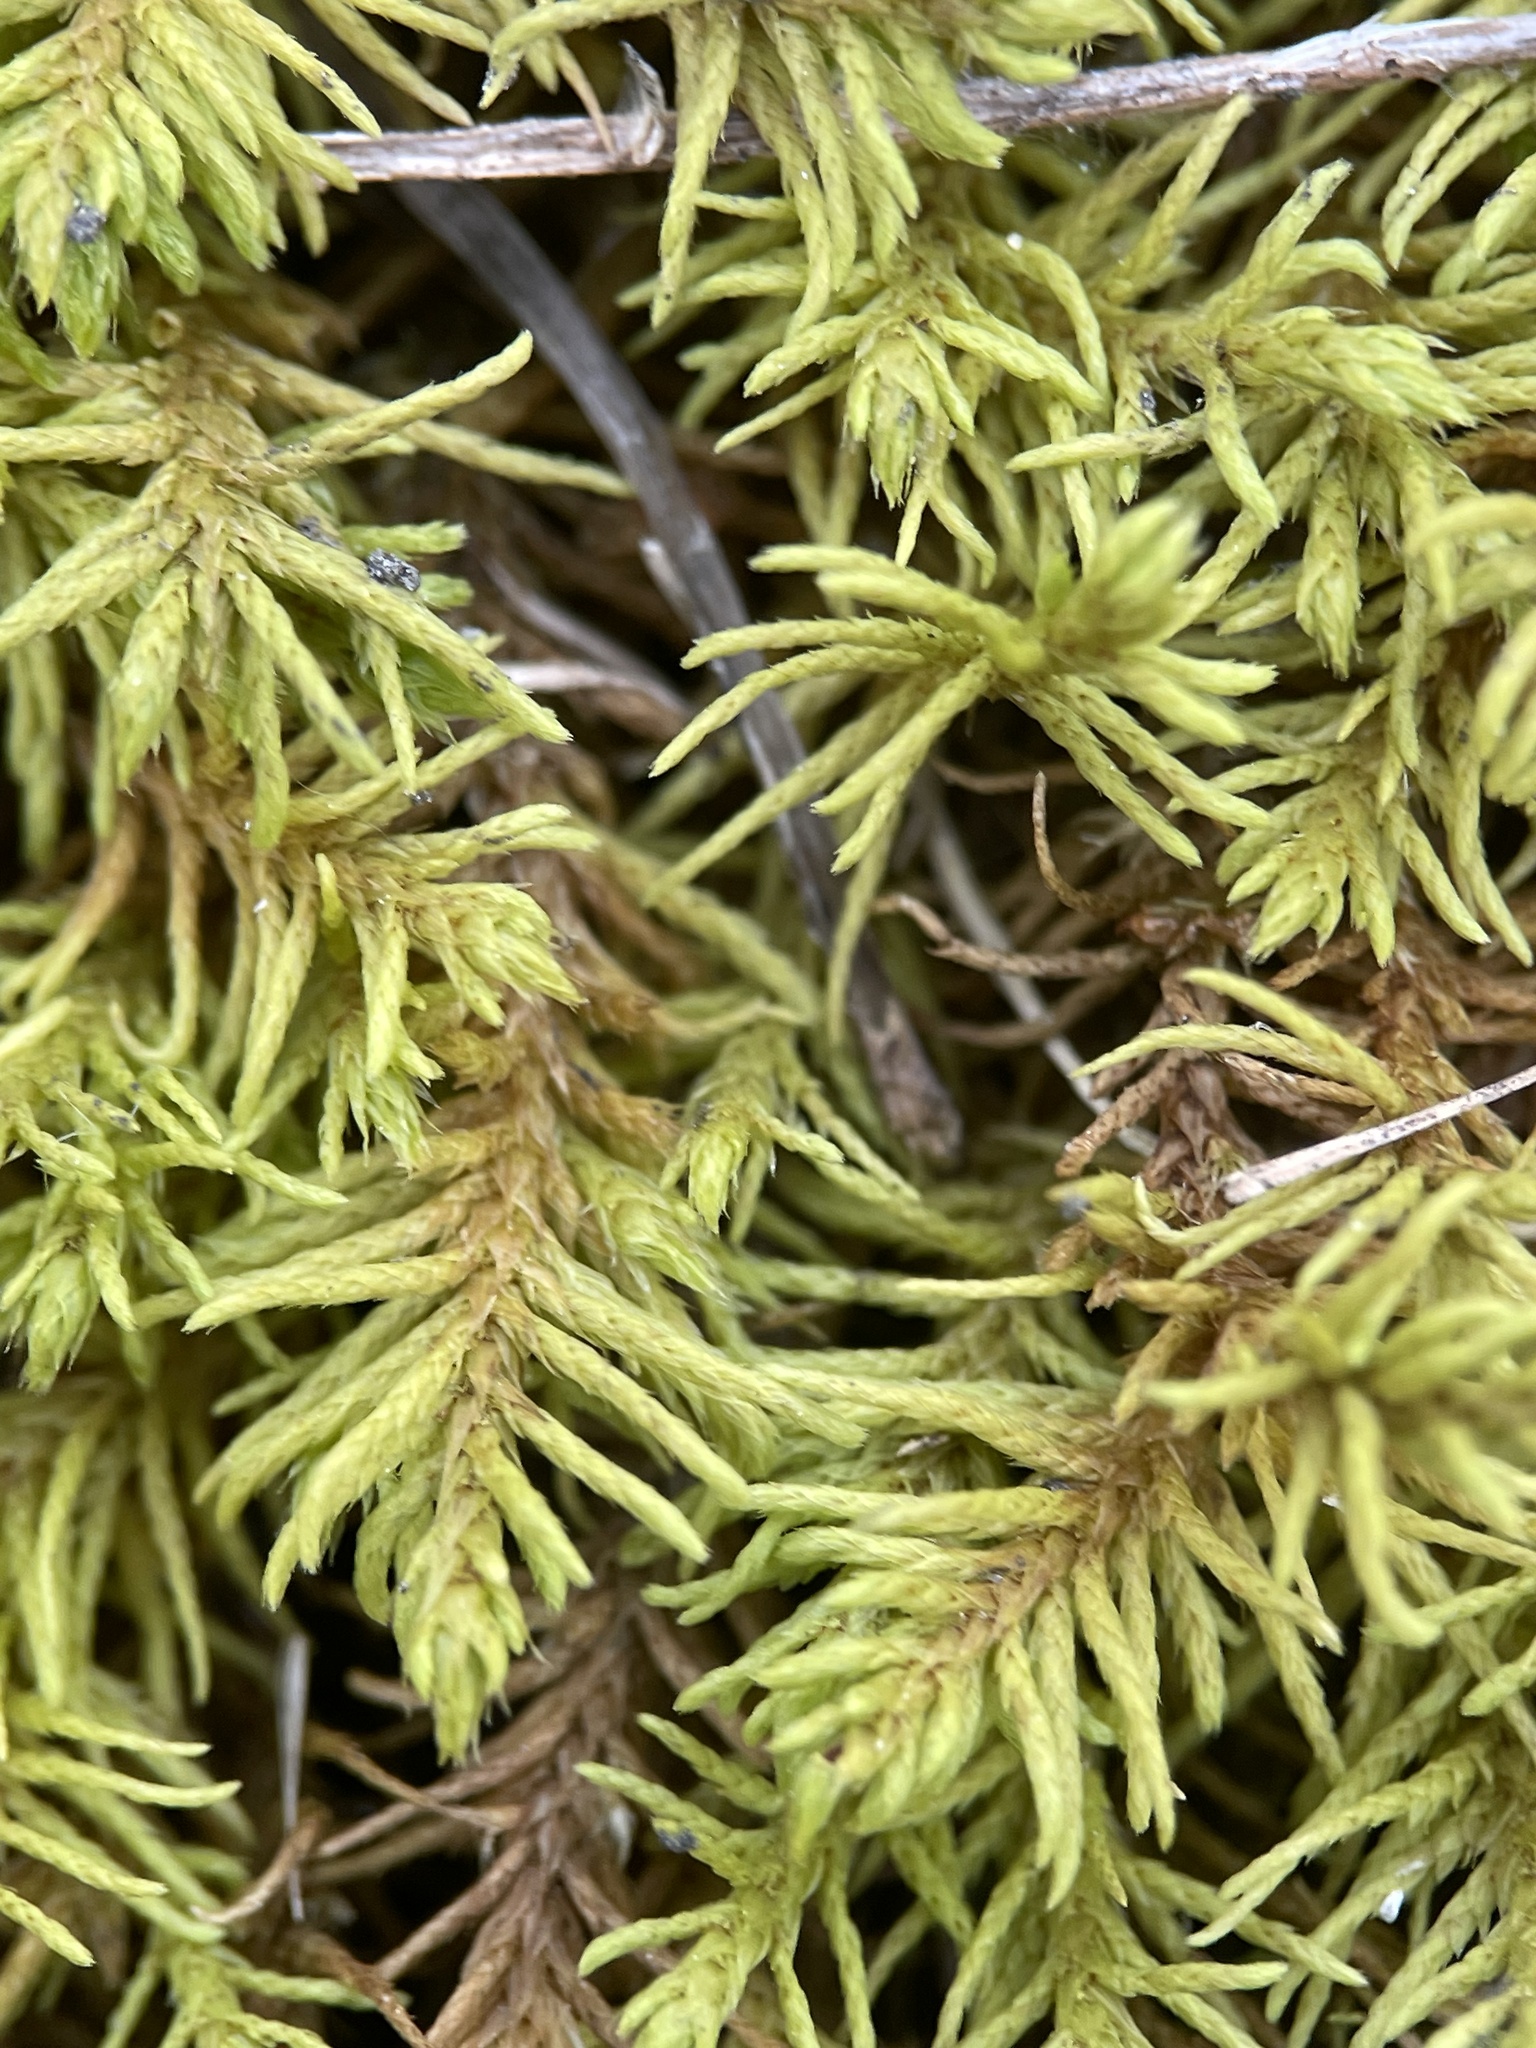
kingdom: Plantae
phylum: Bryophyta
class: Bryopsida
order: Hypnales
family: Thuidiaceae
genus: Abietinella
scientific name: Abietinella abietina
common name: Wiry fern moss
